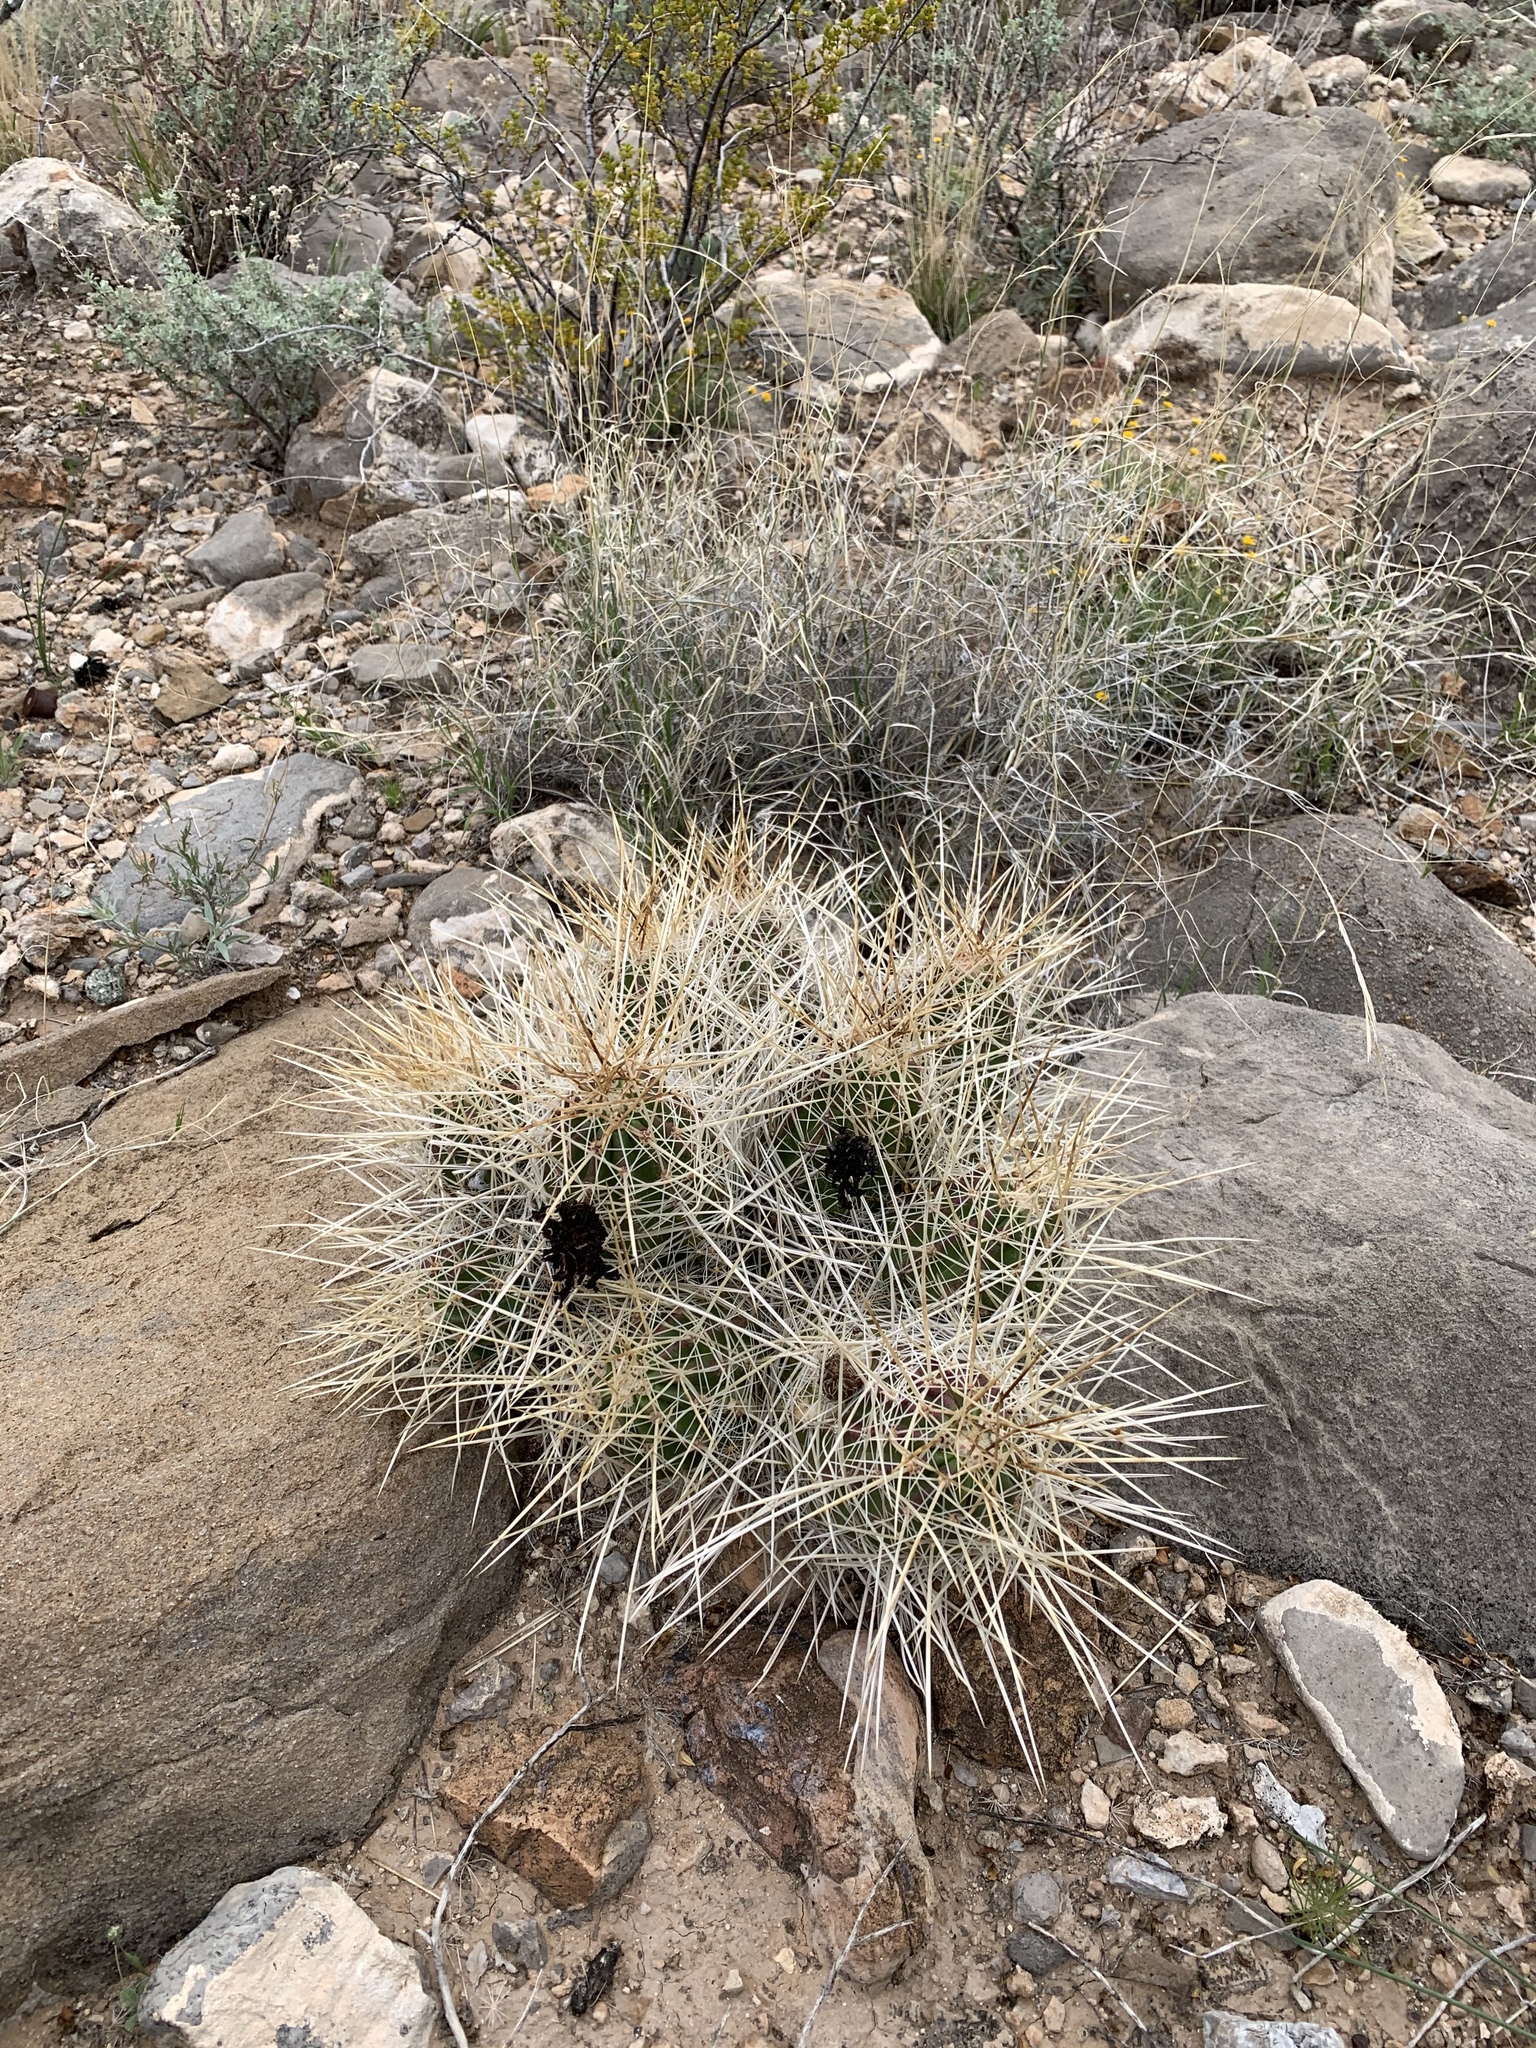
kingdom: Plantae
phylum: Tracheophyta
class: Magnoliopsida
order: Caryophyllales
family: Cactaceae
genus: Echinocereus
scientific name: Echinocereus stramineus
